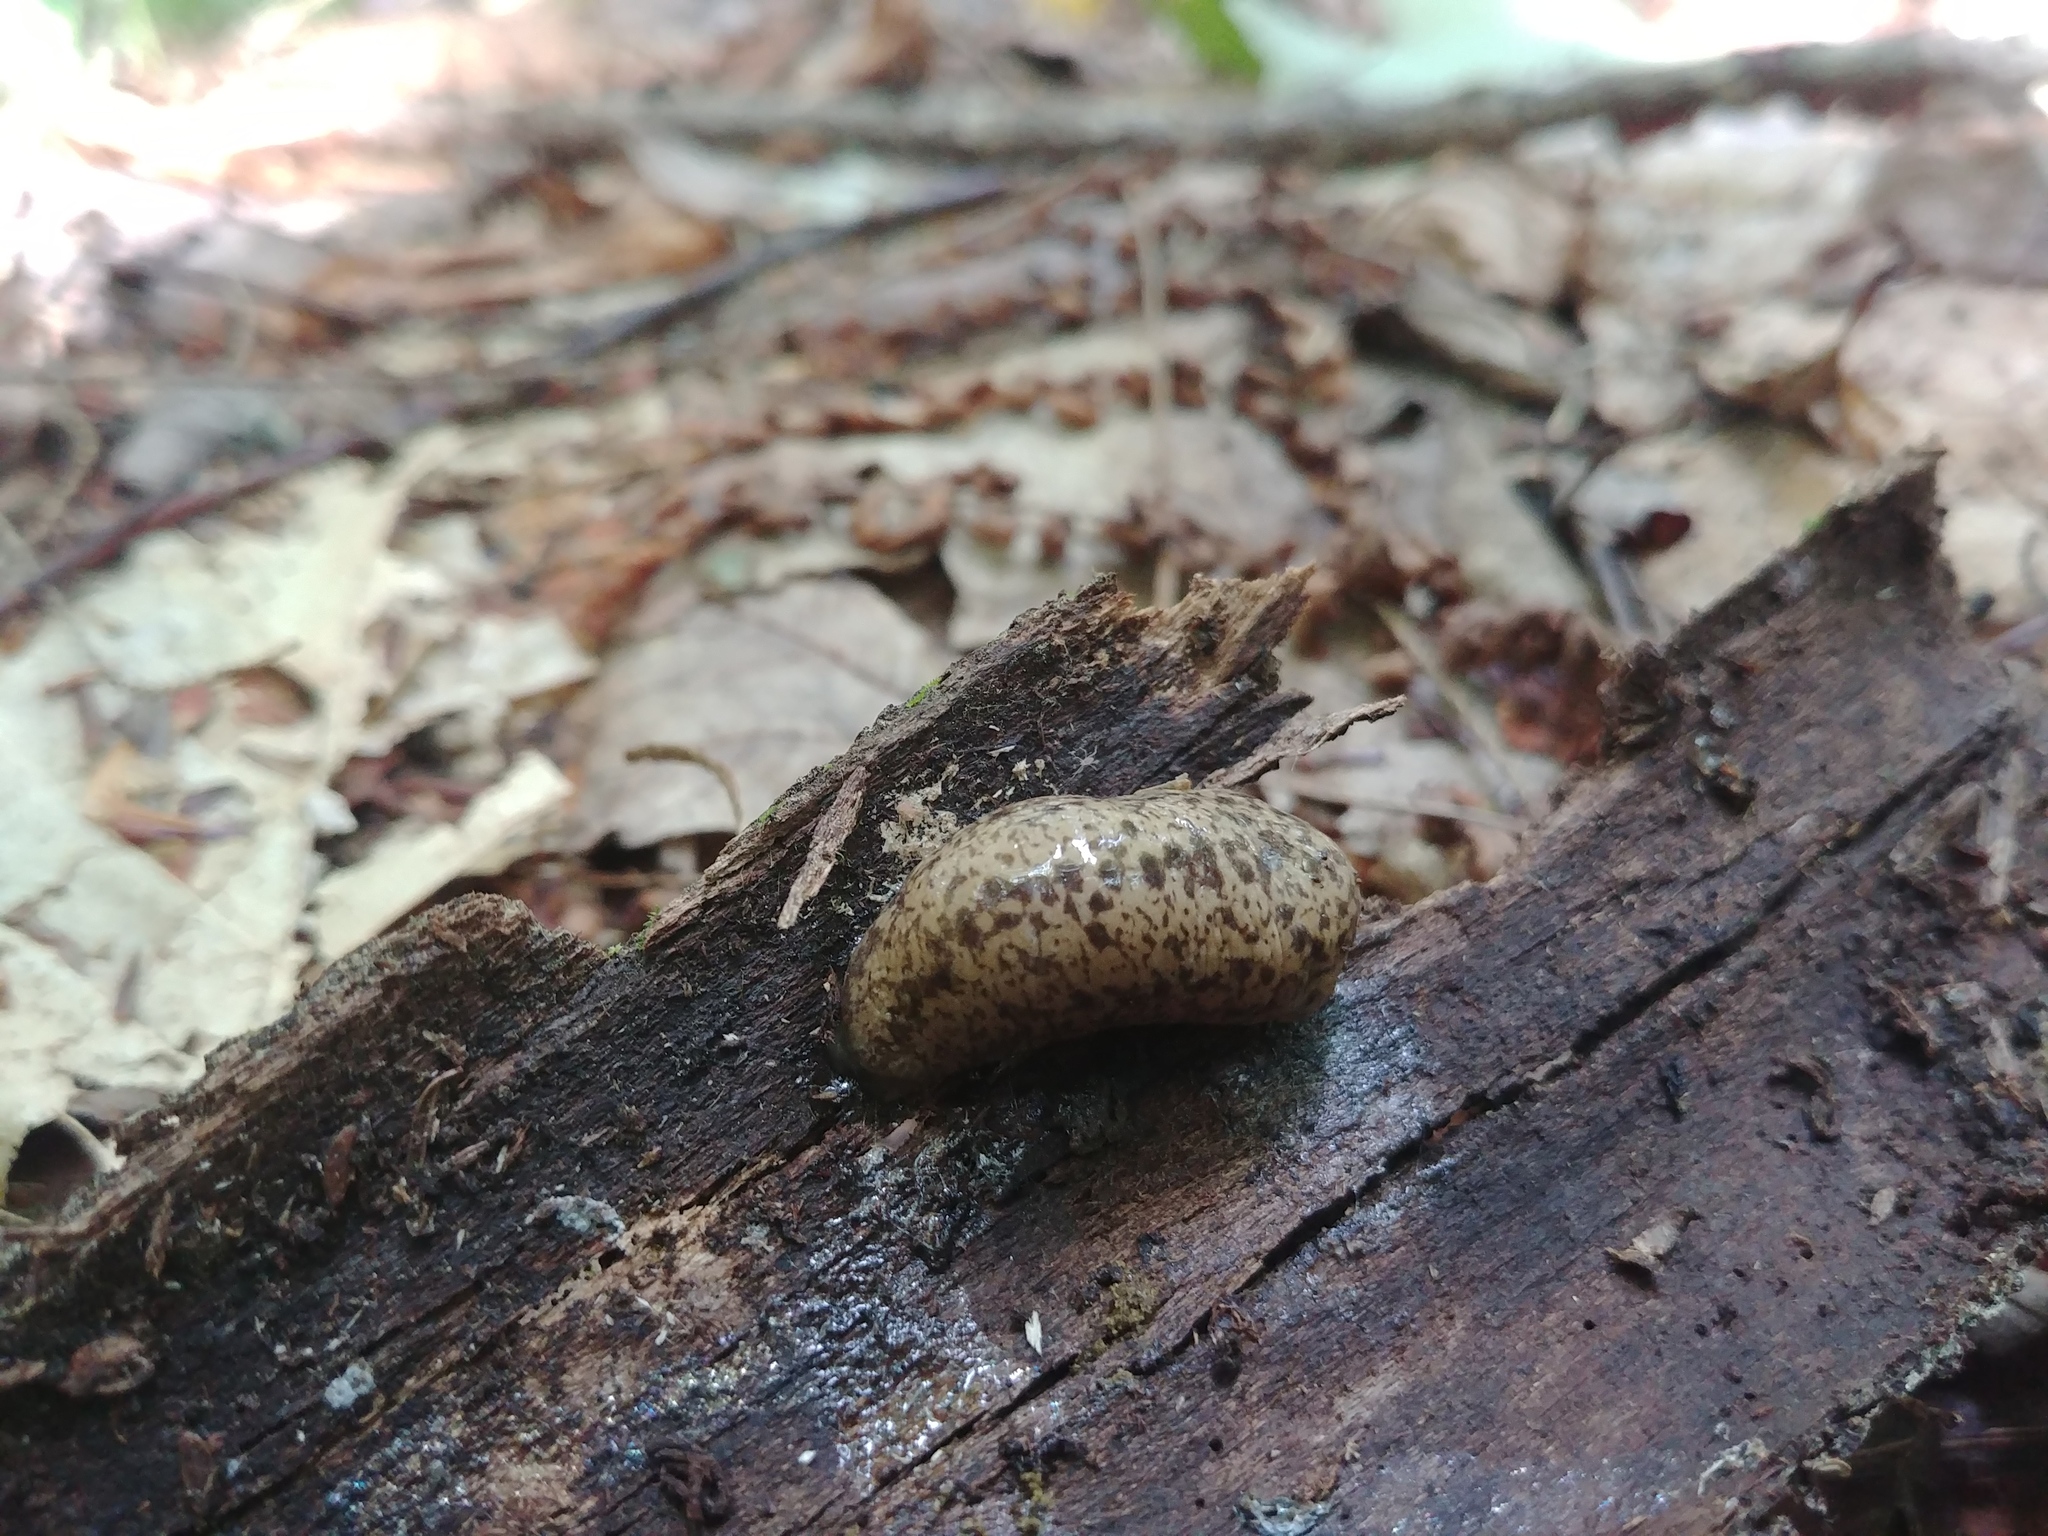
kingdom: Animalia
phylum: Mollusca
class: Gastropoda
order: Stylommatophora
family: Philomycidae
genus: Philomycus
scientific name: Philomycus flexuolaris
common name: Winding mantleslug
